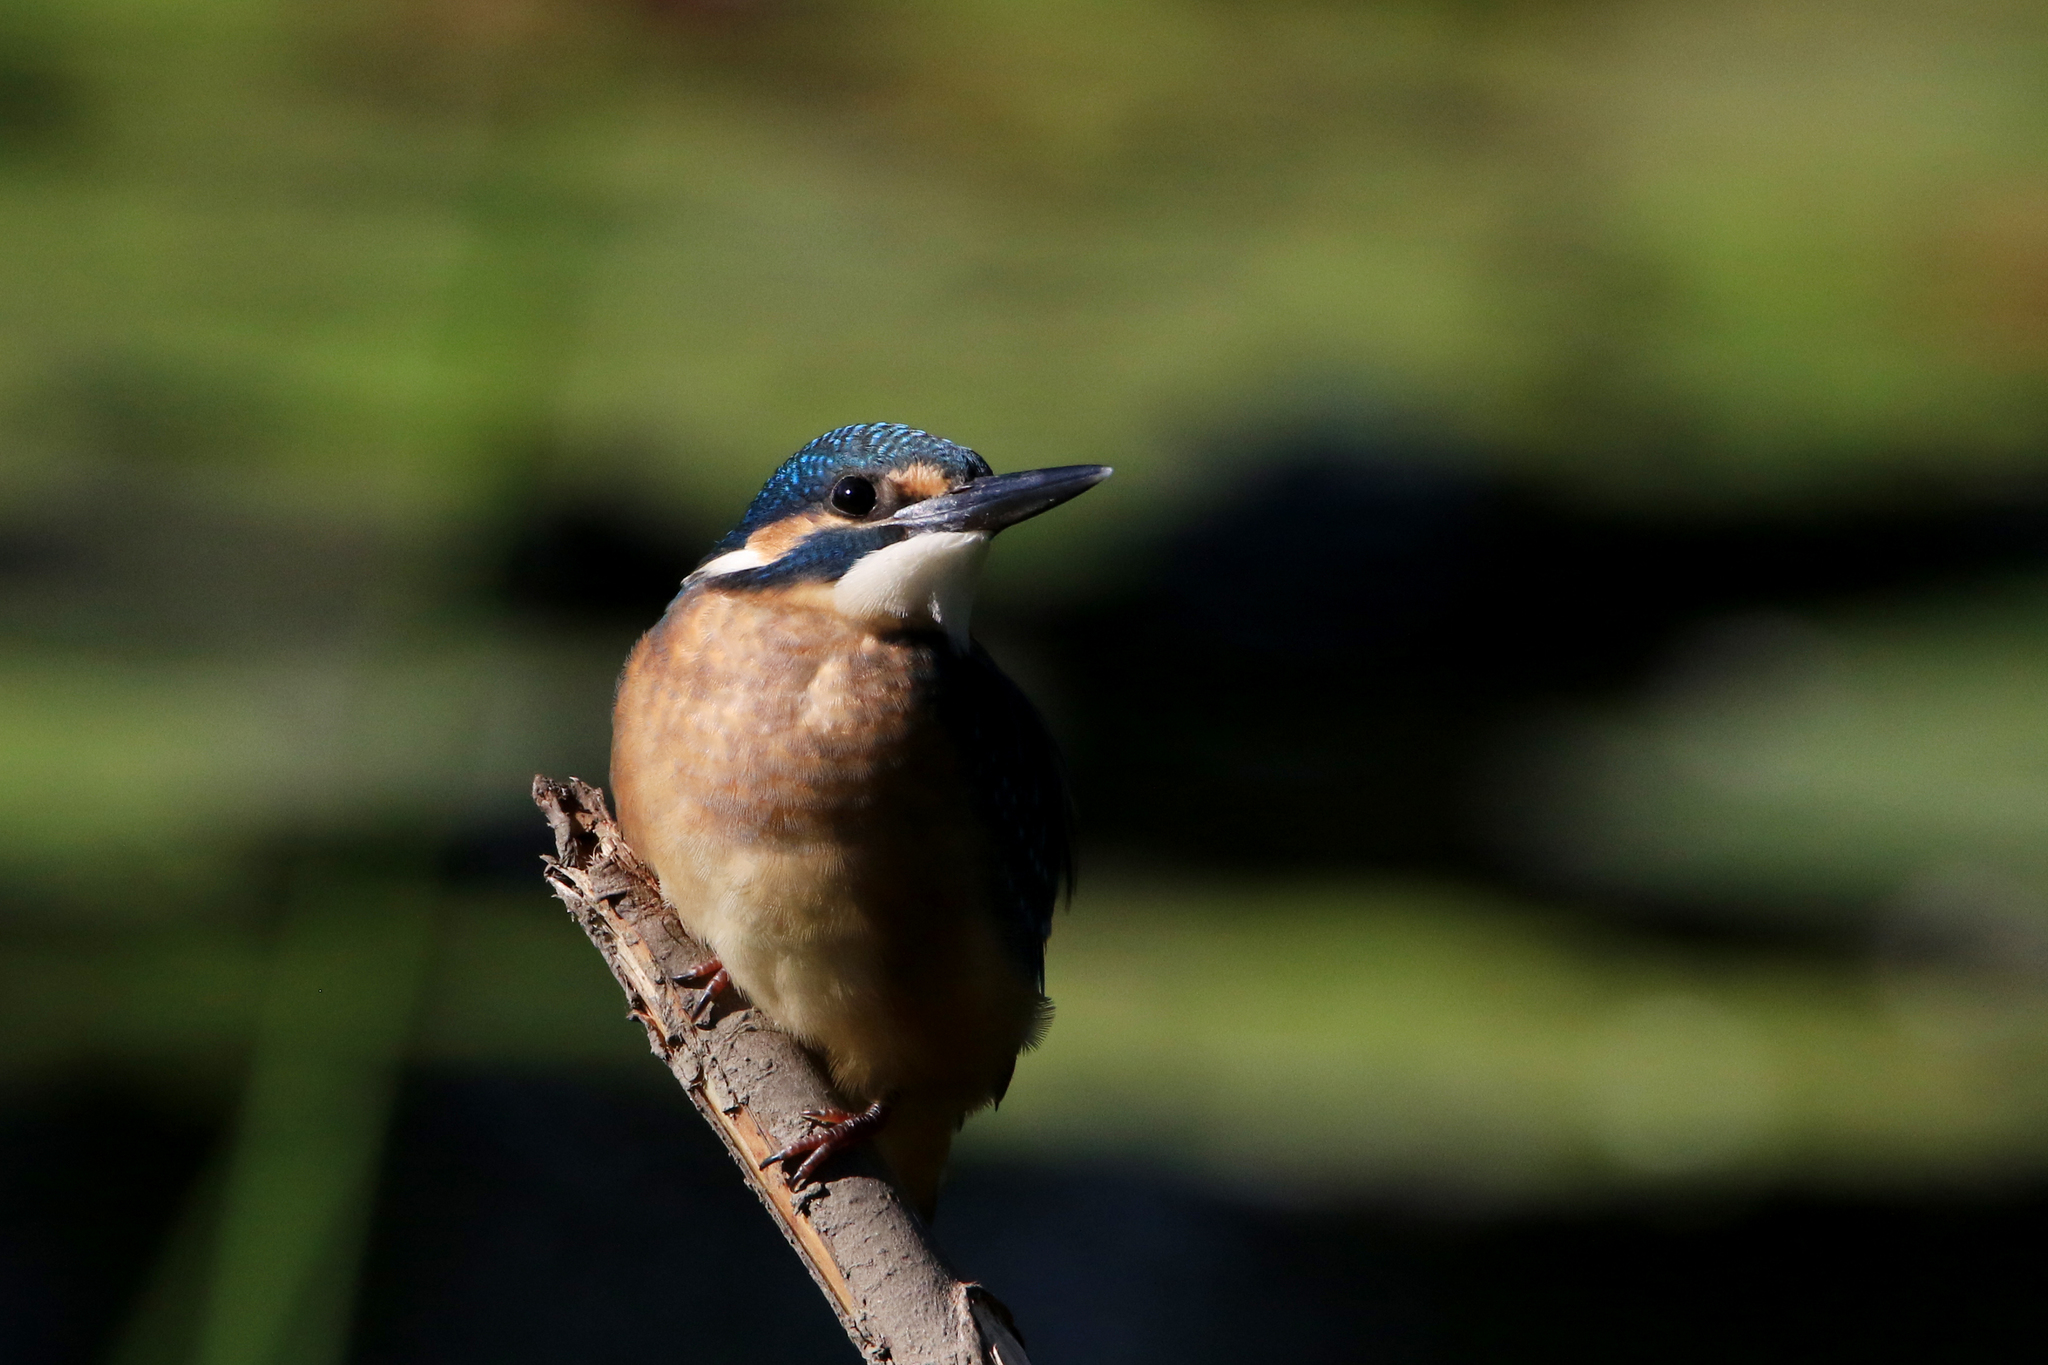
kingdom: Animalia
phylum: Chordata
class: Aves
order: Coraciiformes
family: Alcedinidae
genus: Alcedo
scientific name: Alcedo atthis
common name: Common kingfisher
